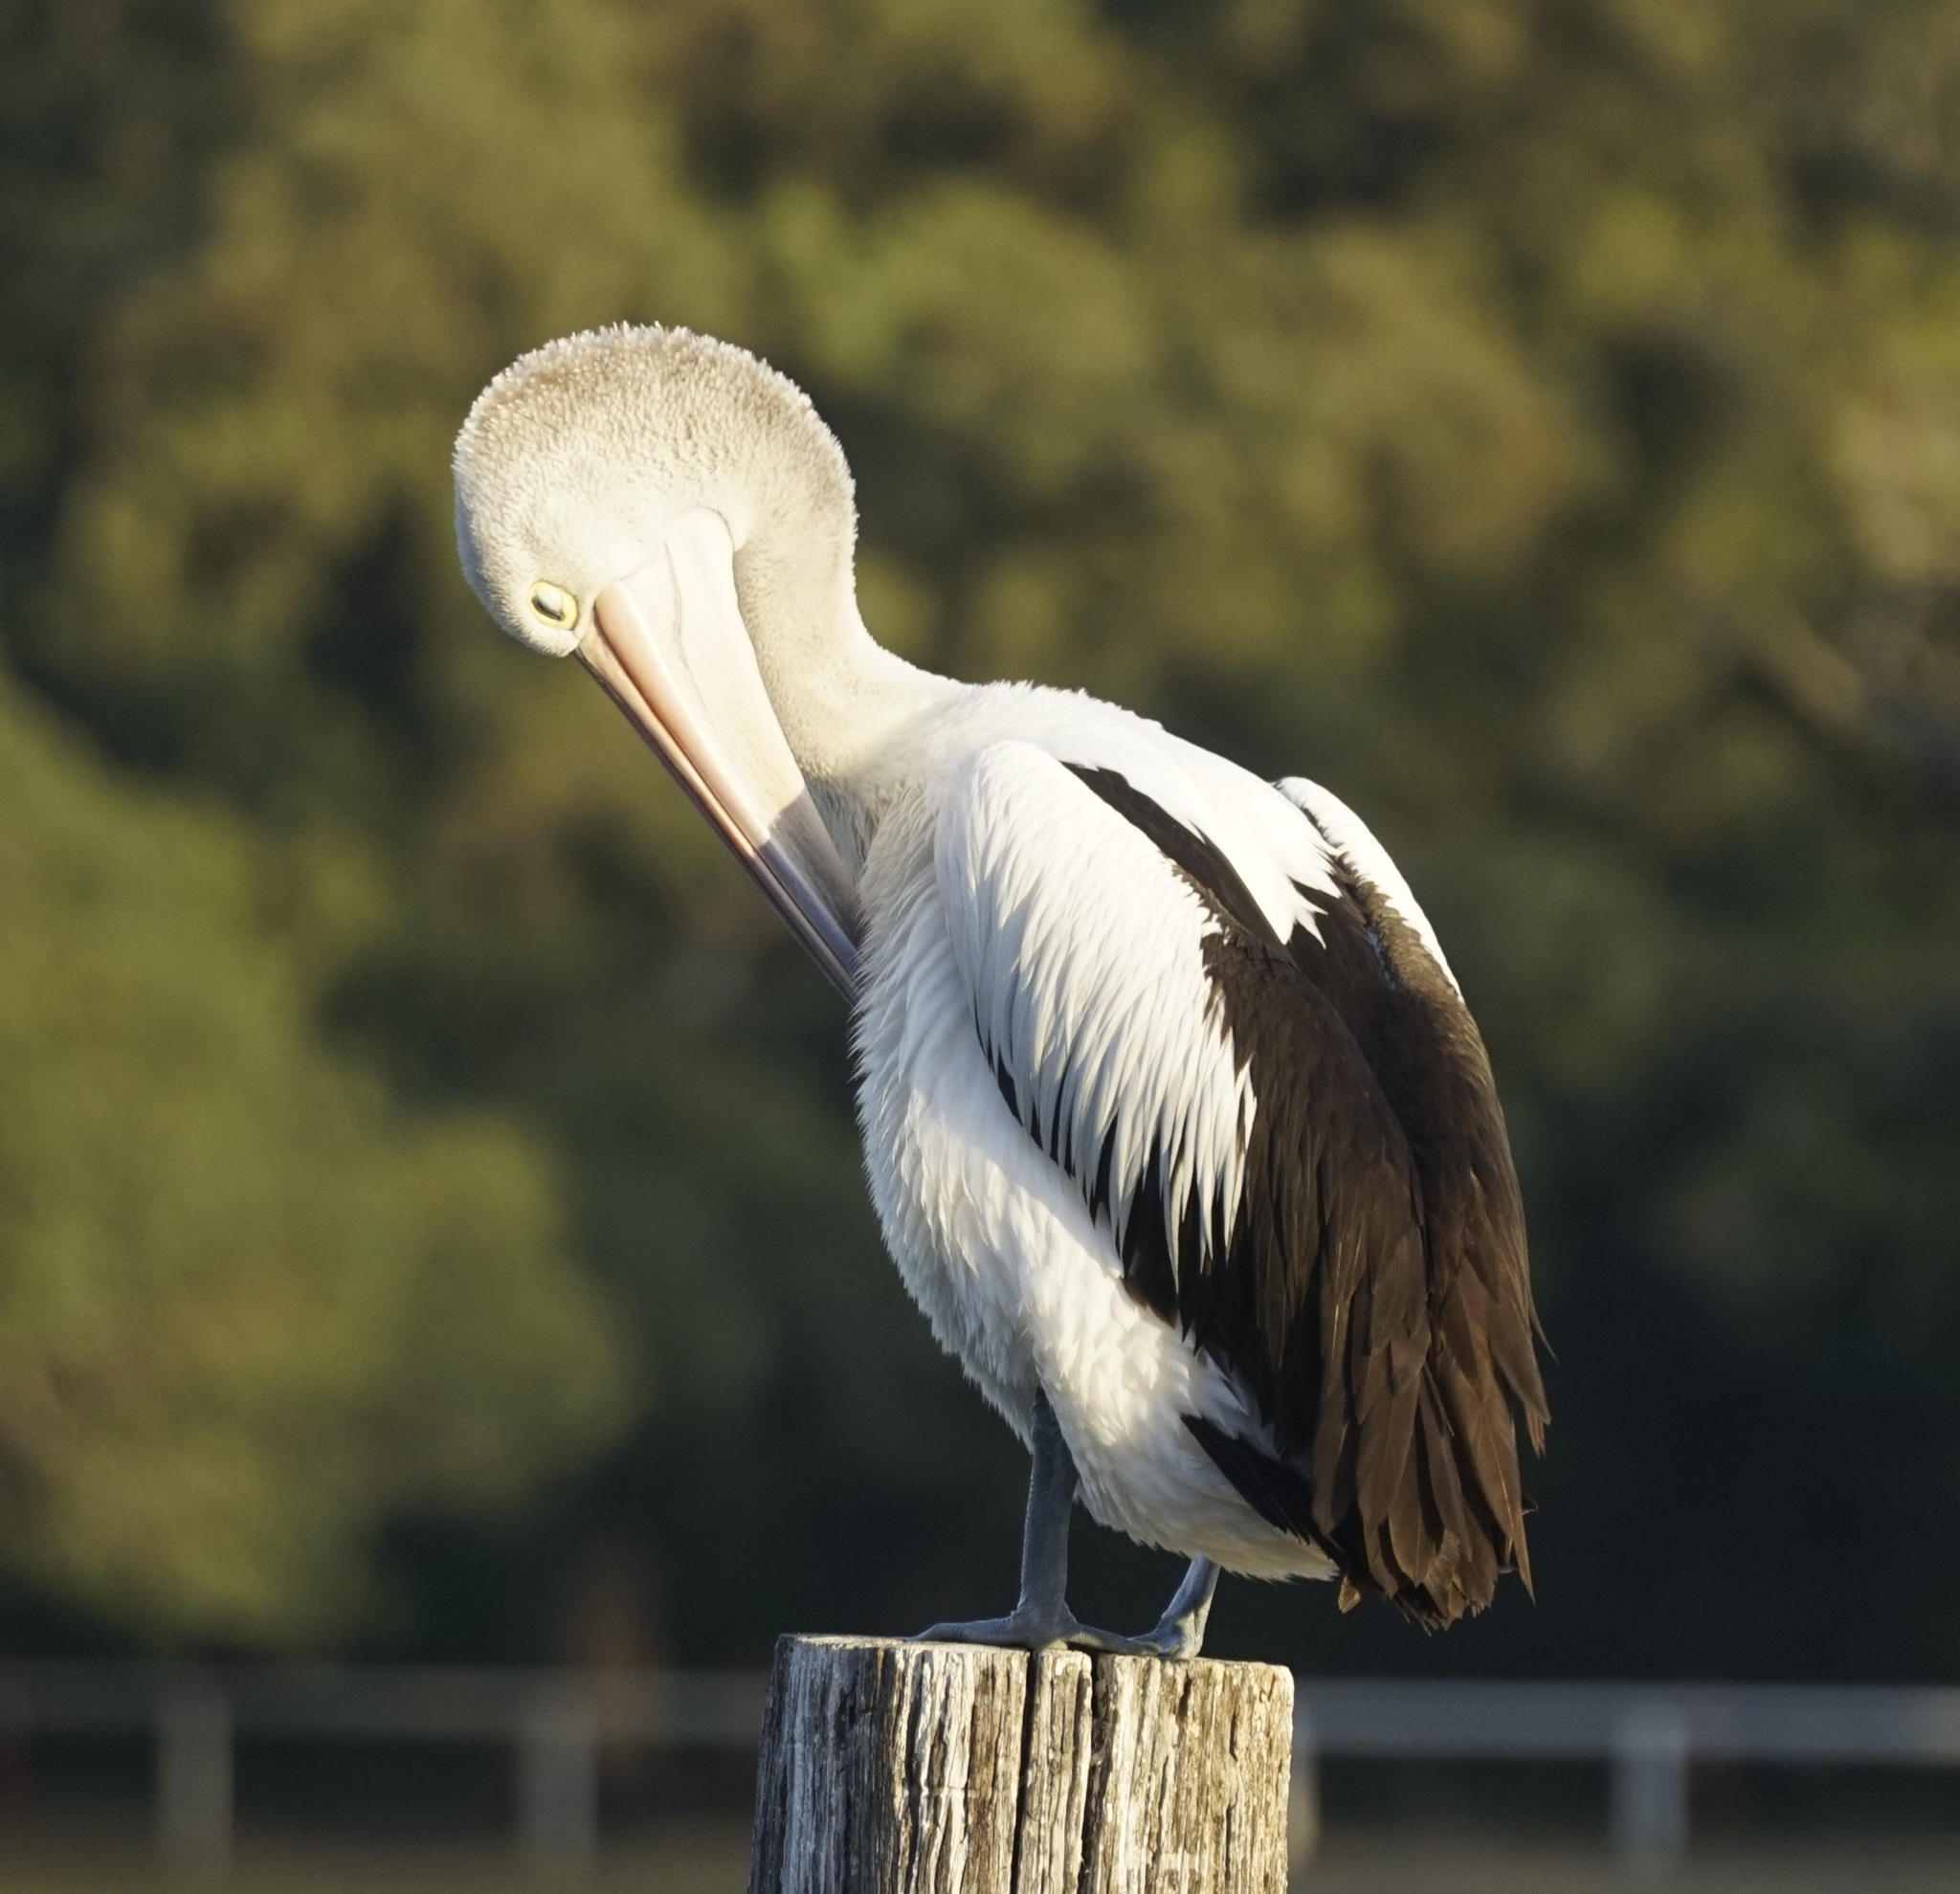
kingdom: Animalia
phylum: Chordata
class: Aves
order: Pelecaniformes
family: Pelecanidae
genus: Pelecanus
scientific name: Pelecanus conspicillatus
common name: Australian pelican
